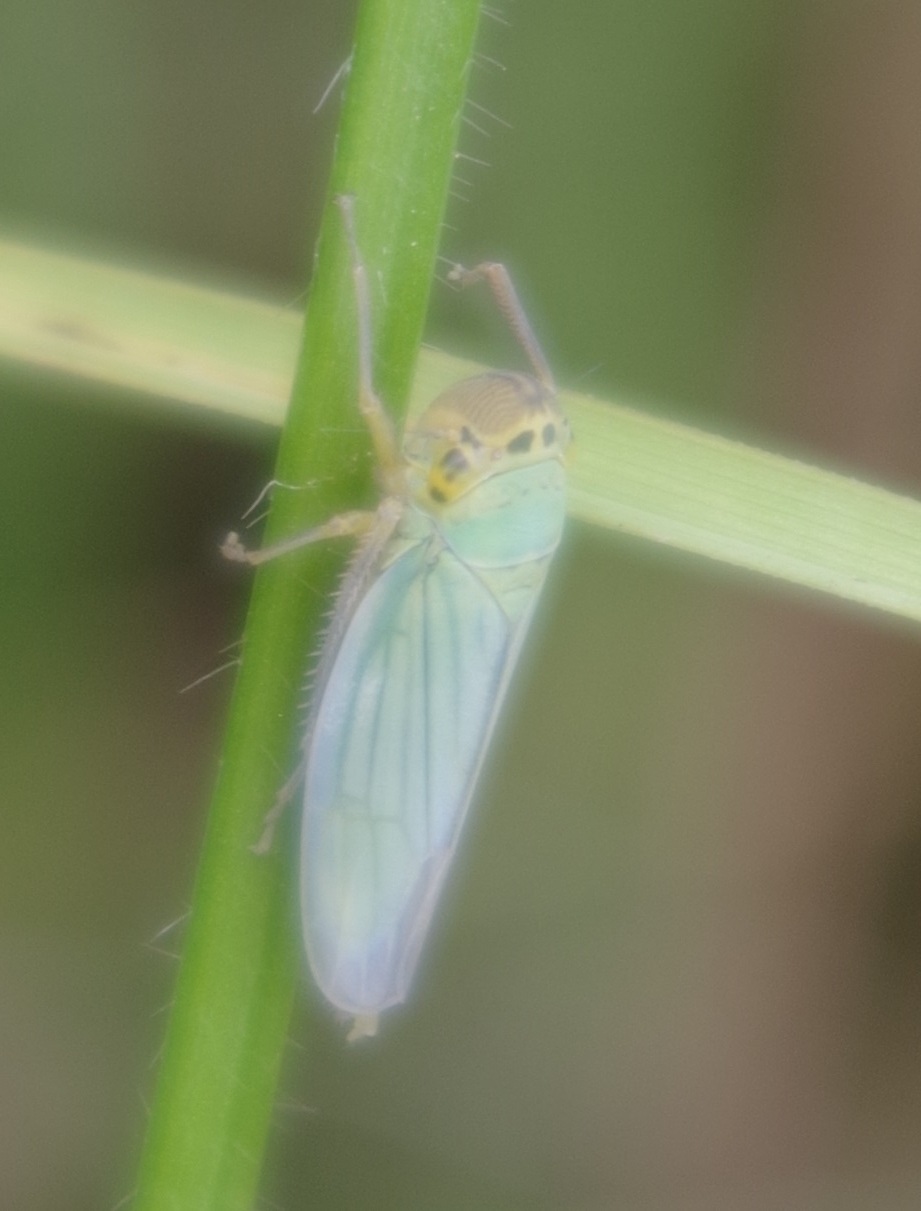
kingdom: Animalia
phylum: Arthropoda
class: Insecta
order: Hemiptera
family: Cicadellidae
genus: Cicadella
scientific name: Cicadella viridis
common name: Leafhopper
